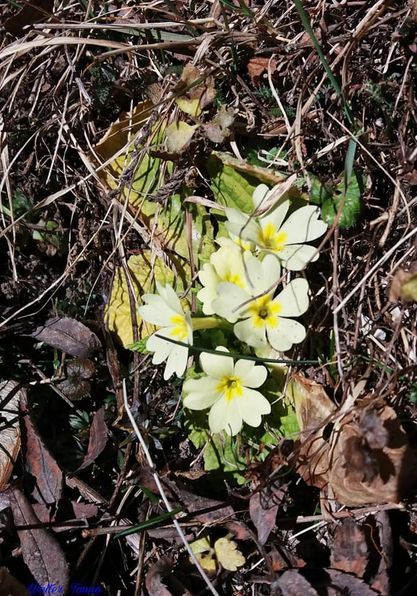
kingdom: Plantae
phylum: Tracheophyta
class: Magnoliopsida
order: Ericales
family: Primulaceae
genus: Primula
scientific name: Primula vulgaris
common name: Primrose
